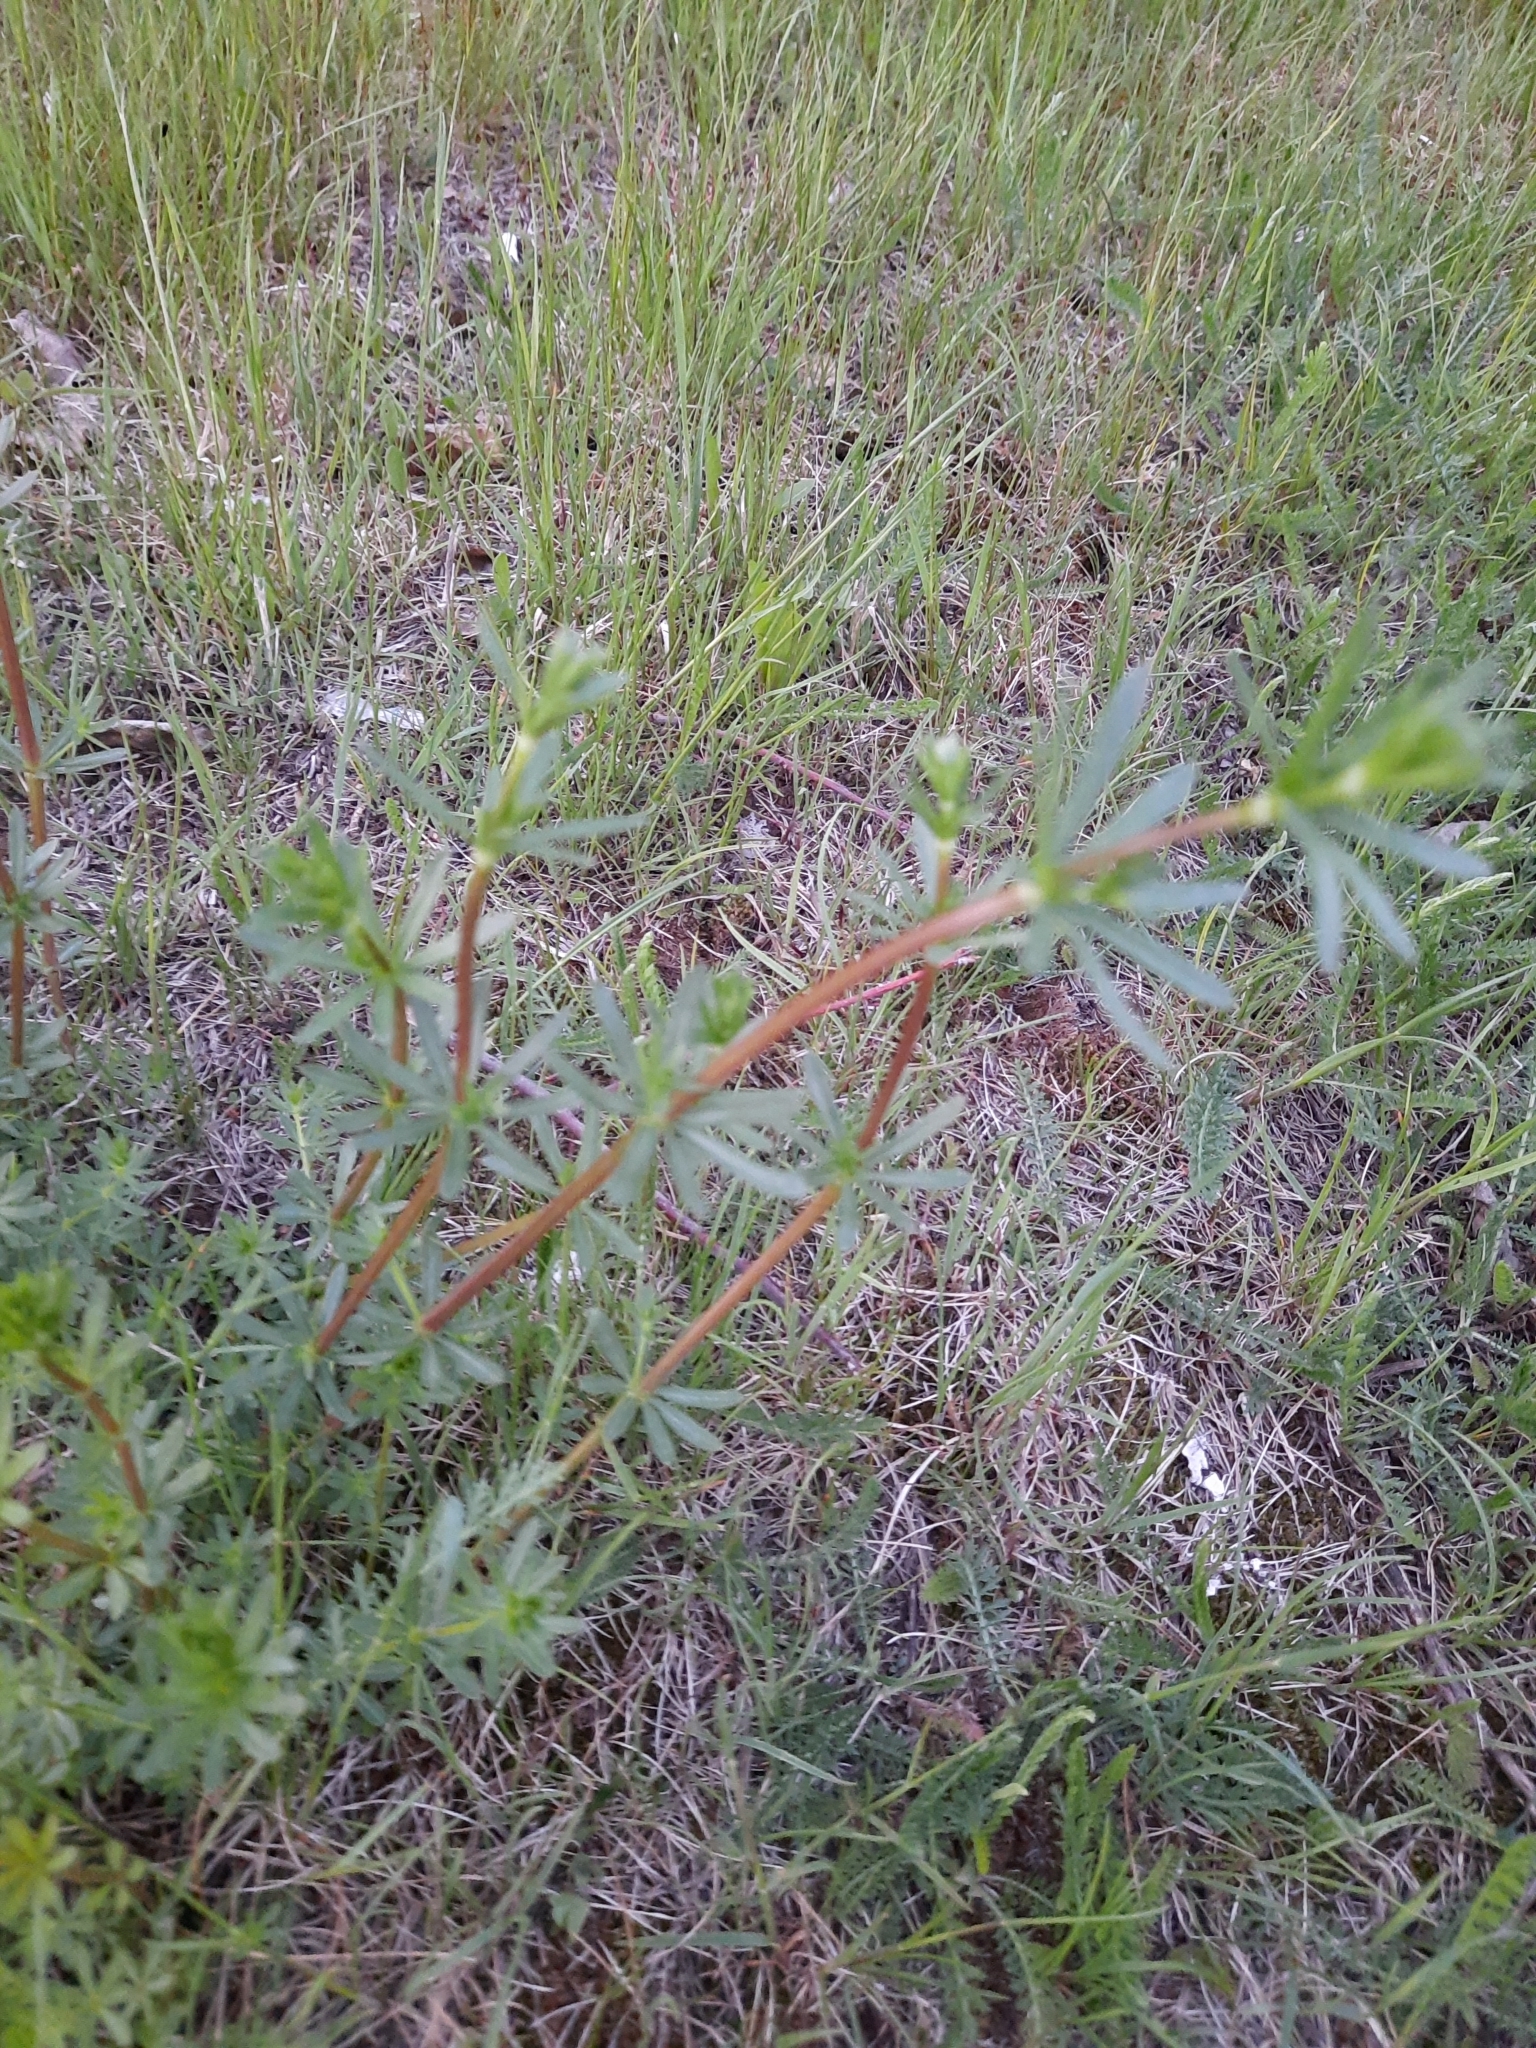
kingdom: Plantae
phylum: Tracheophyta
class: Magnoliopsida
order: Gentianales
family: Rubiaceae
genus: Galium
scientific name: Galium mollugo
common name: Hedge bedstraw
